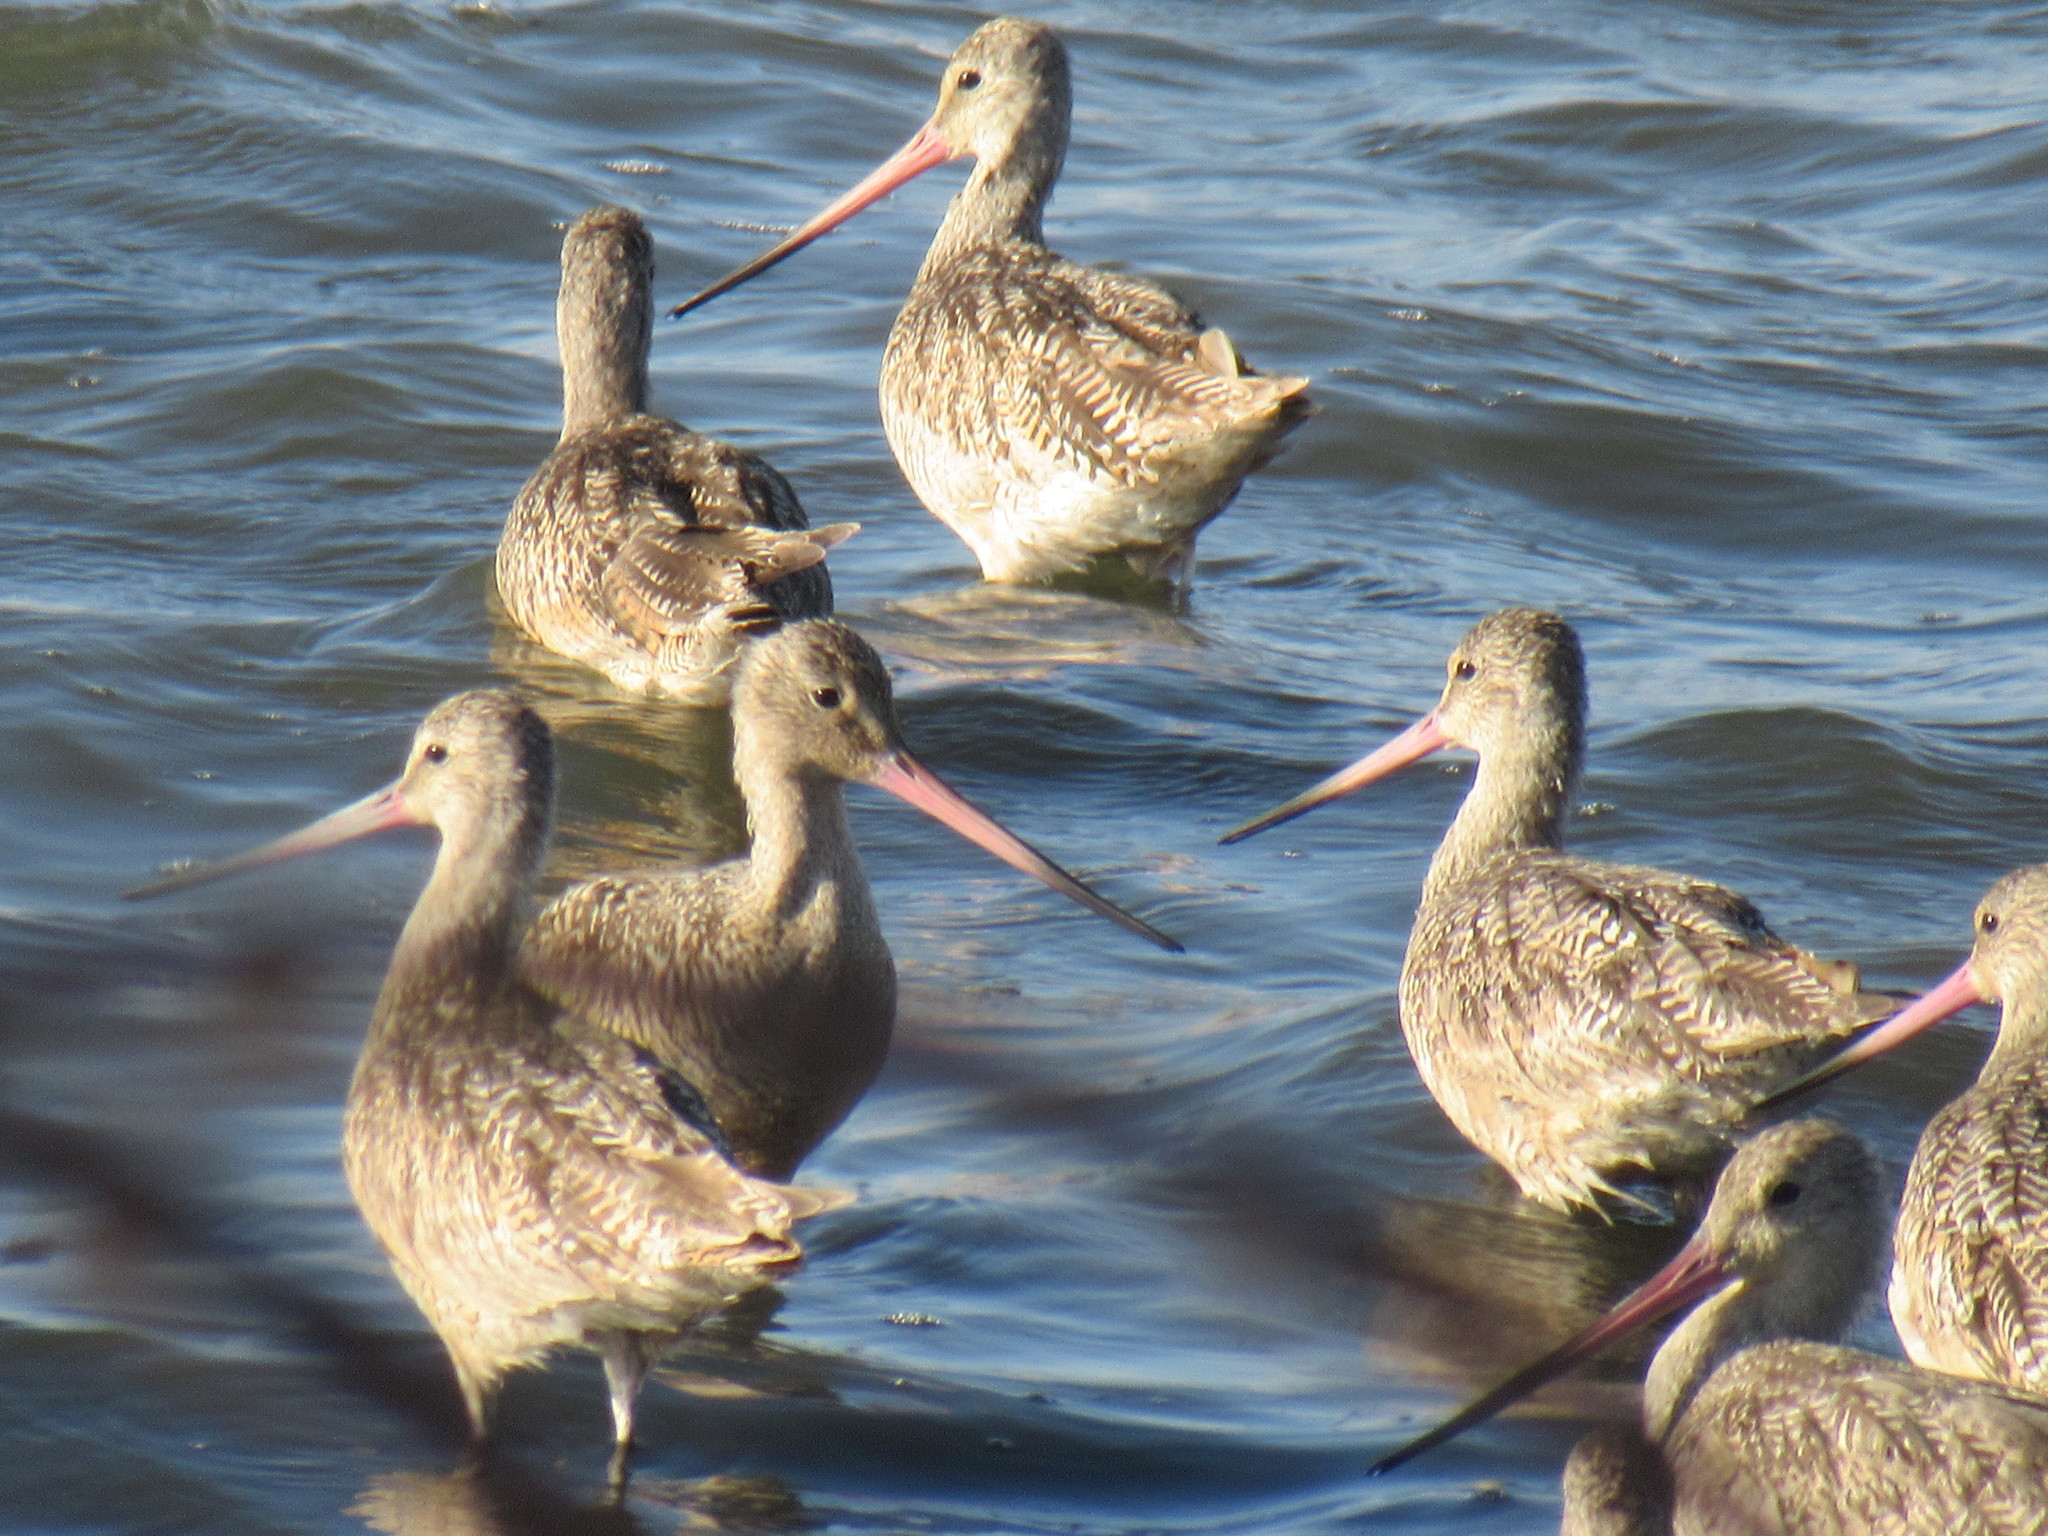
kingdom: Animalia
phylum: Chordata
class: Aves
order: Charadriiformes
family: Scolopacidae
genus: Limosa
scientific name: Limosa fedoa
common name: Marbled godwit
